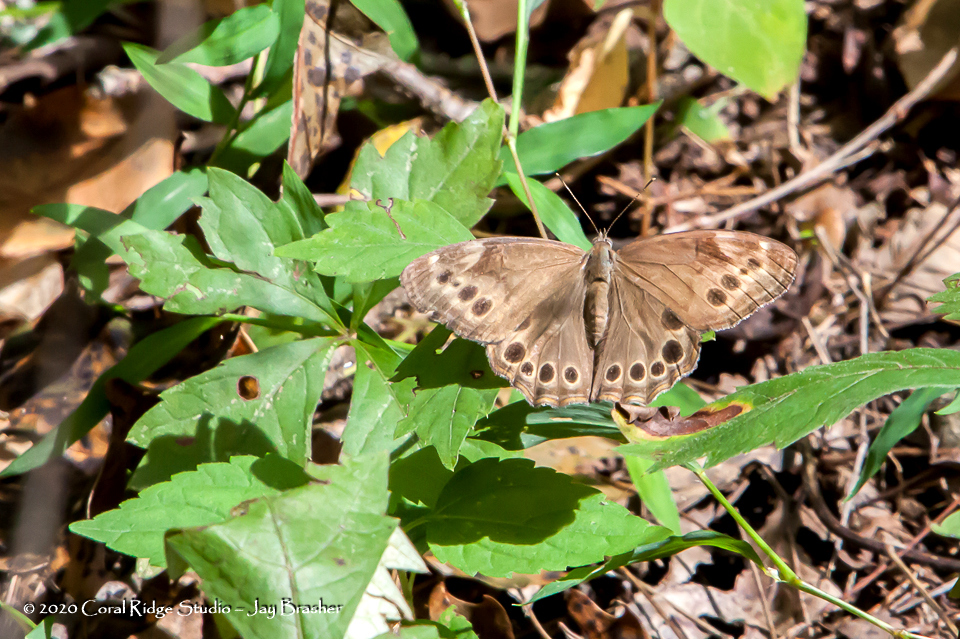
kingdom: Animalia
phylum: Arthropoda
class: Insecta
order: Lepidoptera
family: Nymphalidae
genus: Lethe
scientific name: Lethe anthedon
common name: Northern pearly-eye
